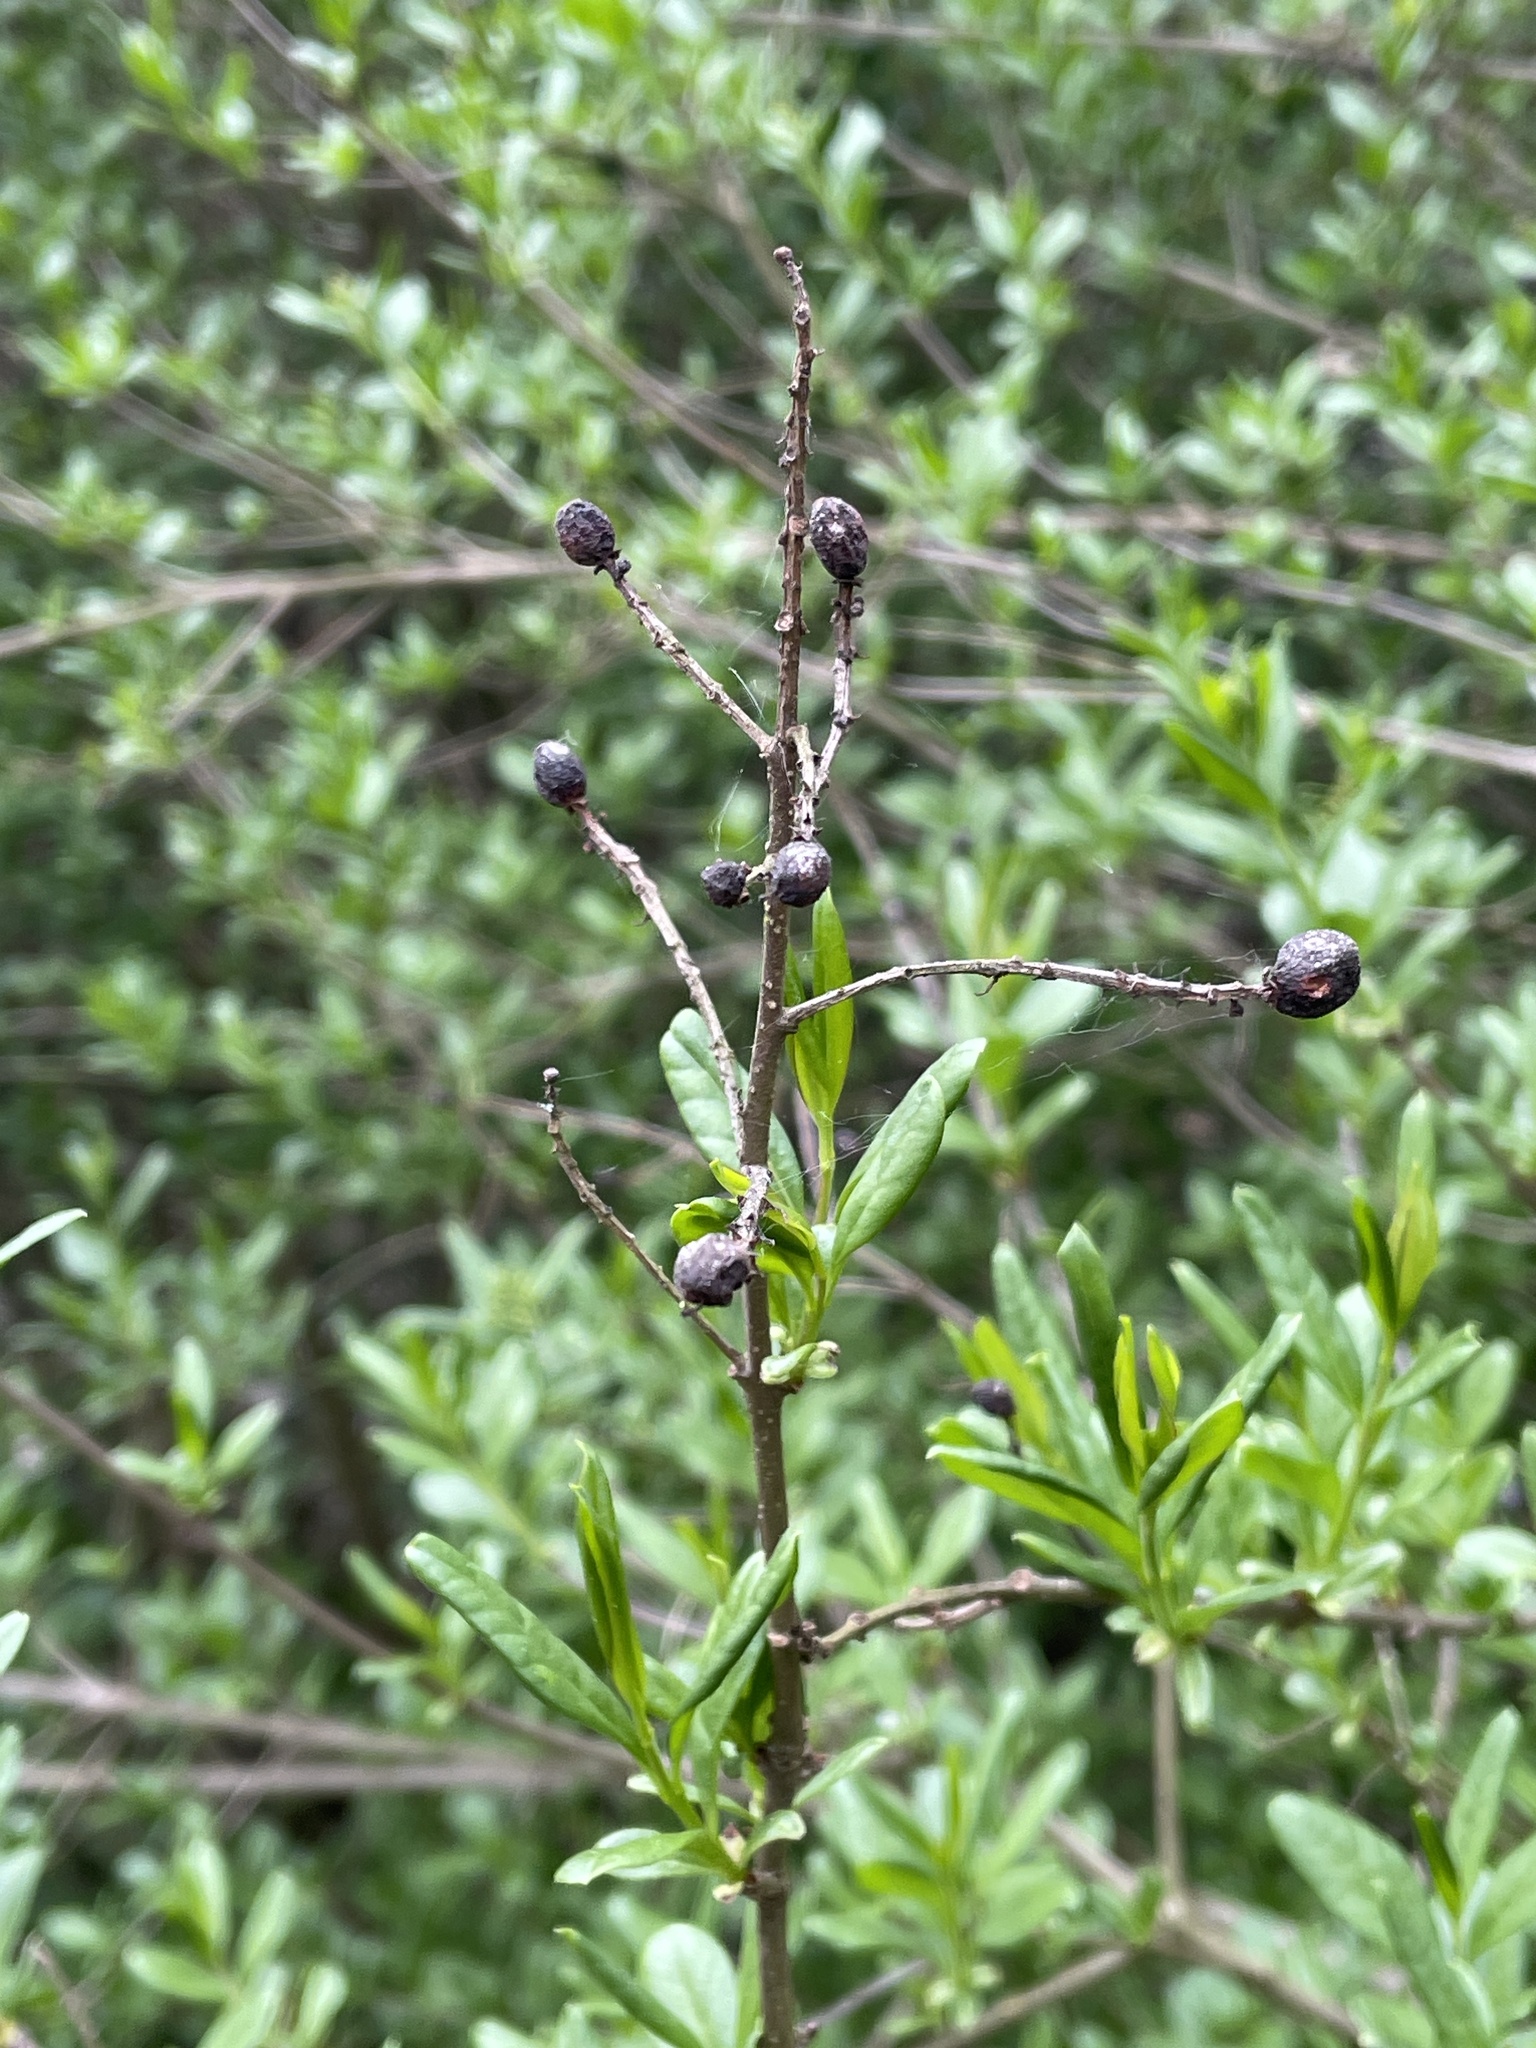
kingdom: Plantae
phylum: Tracheophyta
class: Magnoliopsida
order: Lamiales
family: Oleaceae
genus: Ligustrum
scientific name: Ligustrum vulgare
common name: Wild privet
